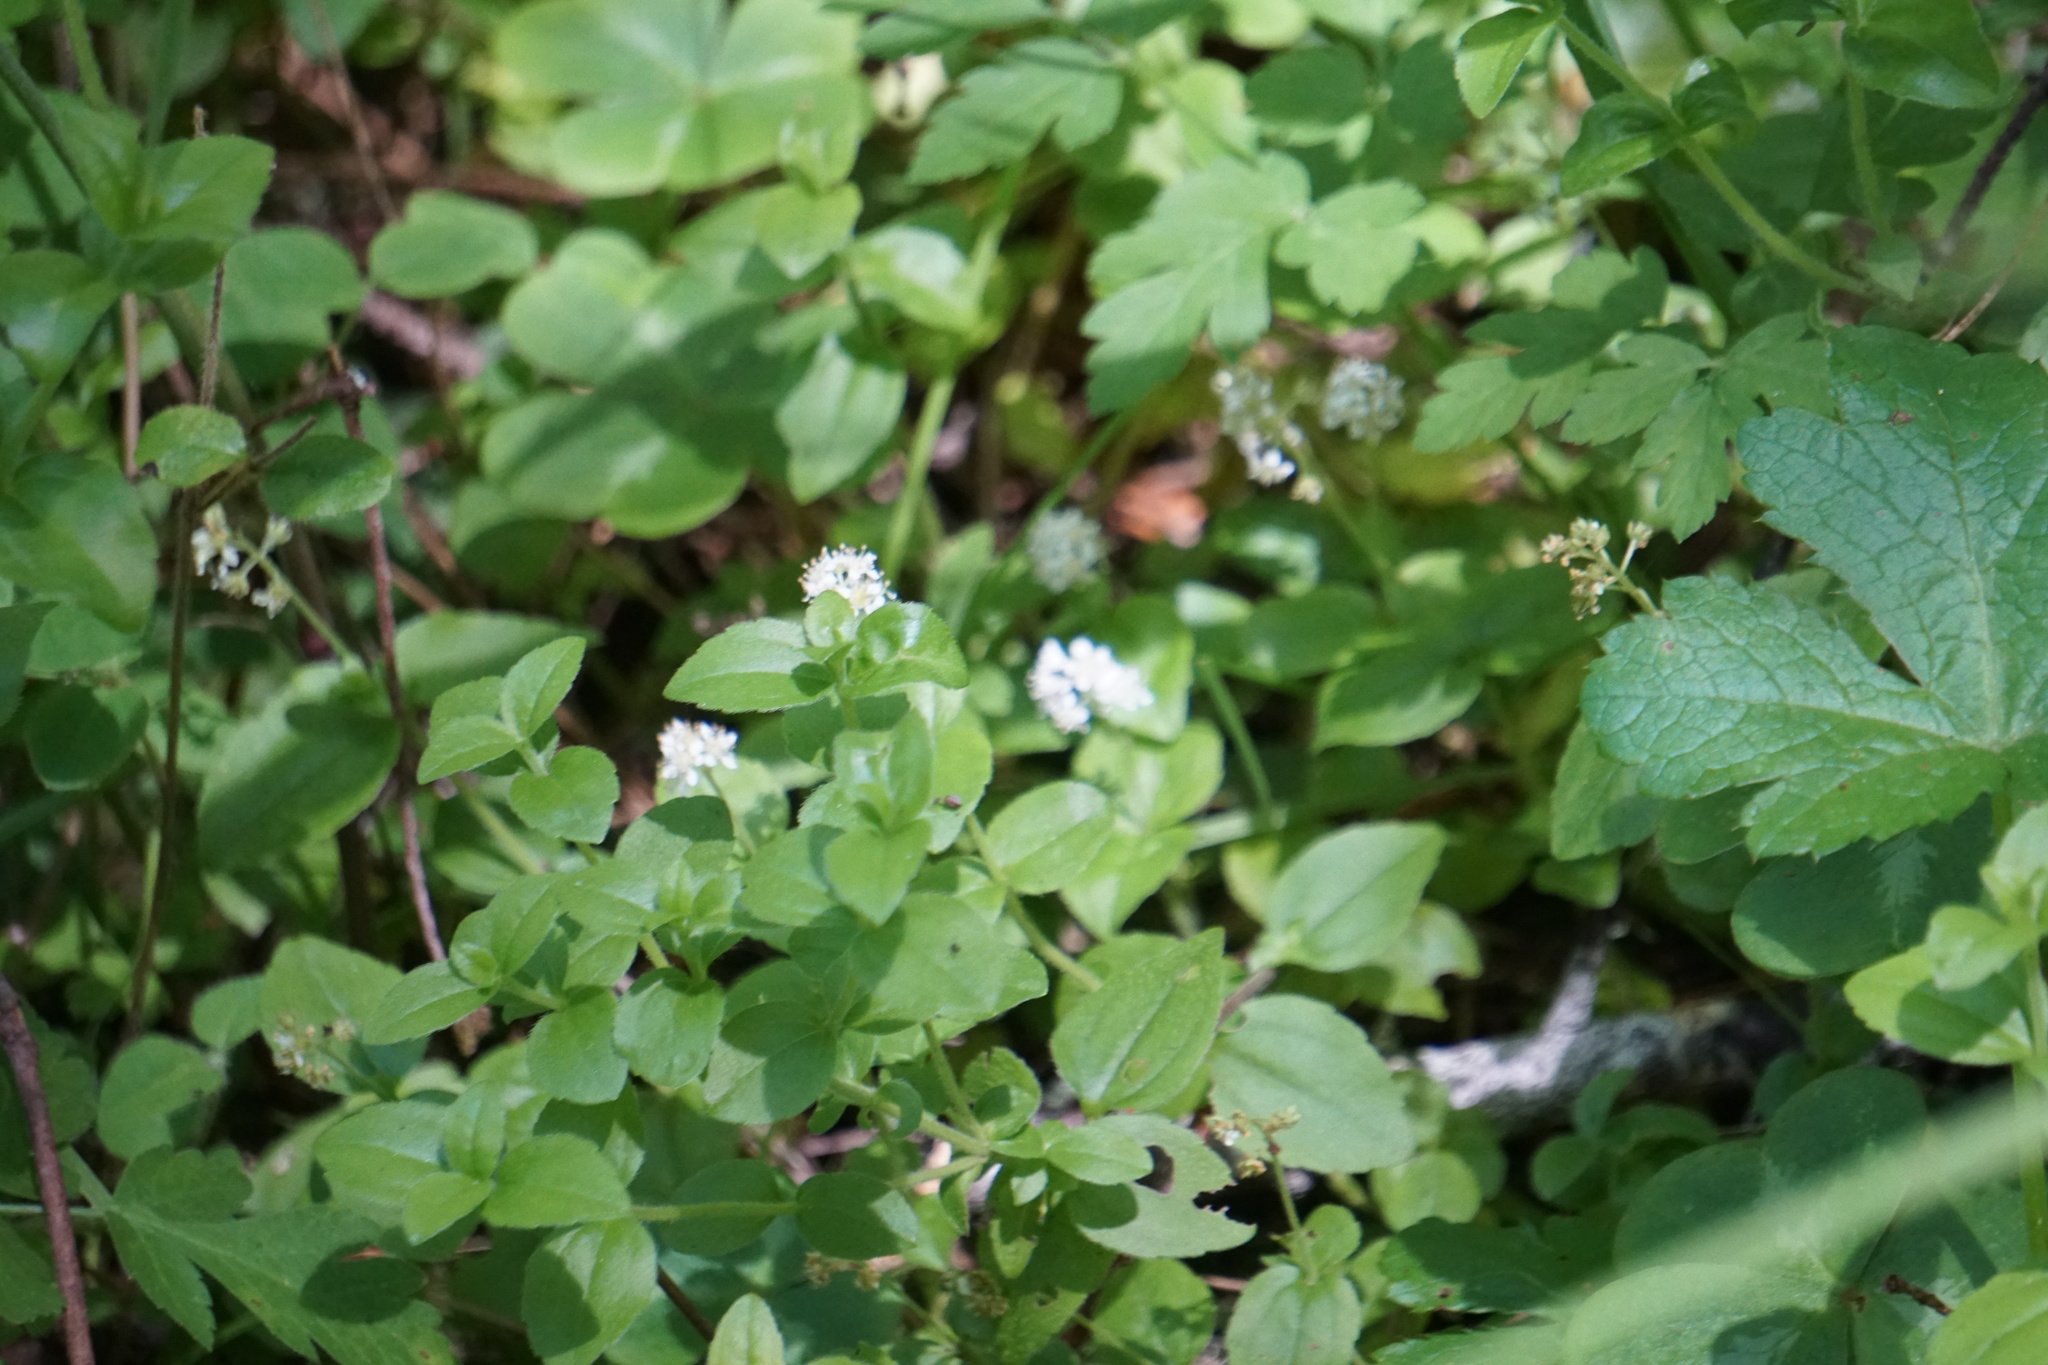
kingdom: Plantae
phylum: Tracheophyta
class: Magnoliopsida
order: Cornales
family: Hydrangeaceae
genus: Whipplea
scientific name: Whipplea modesta
